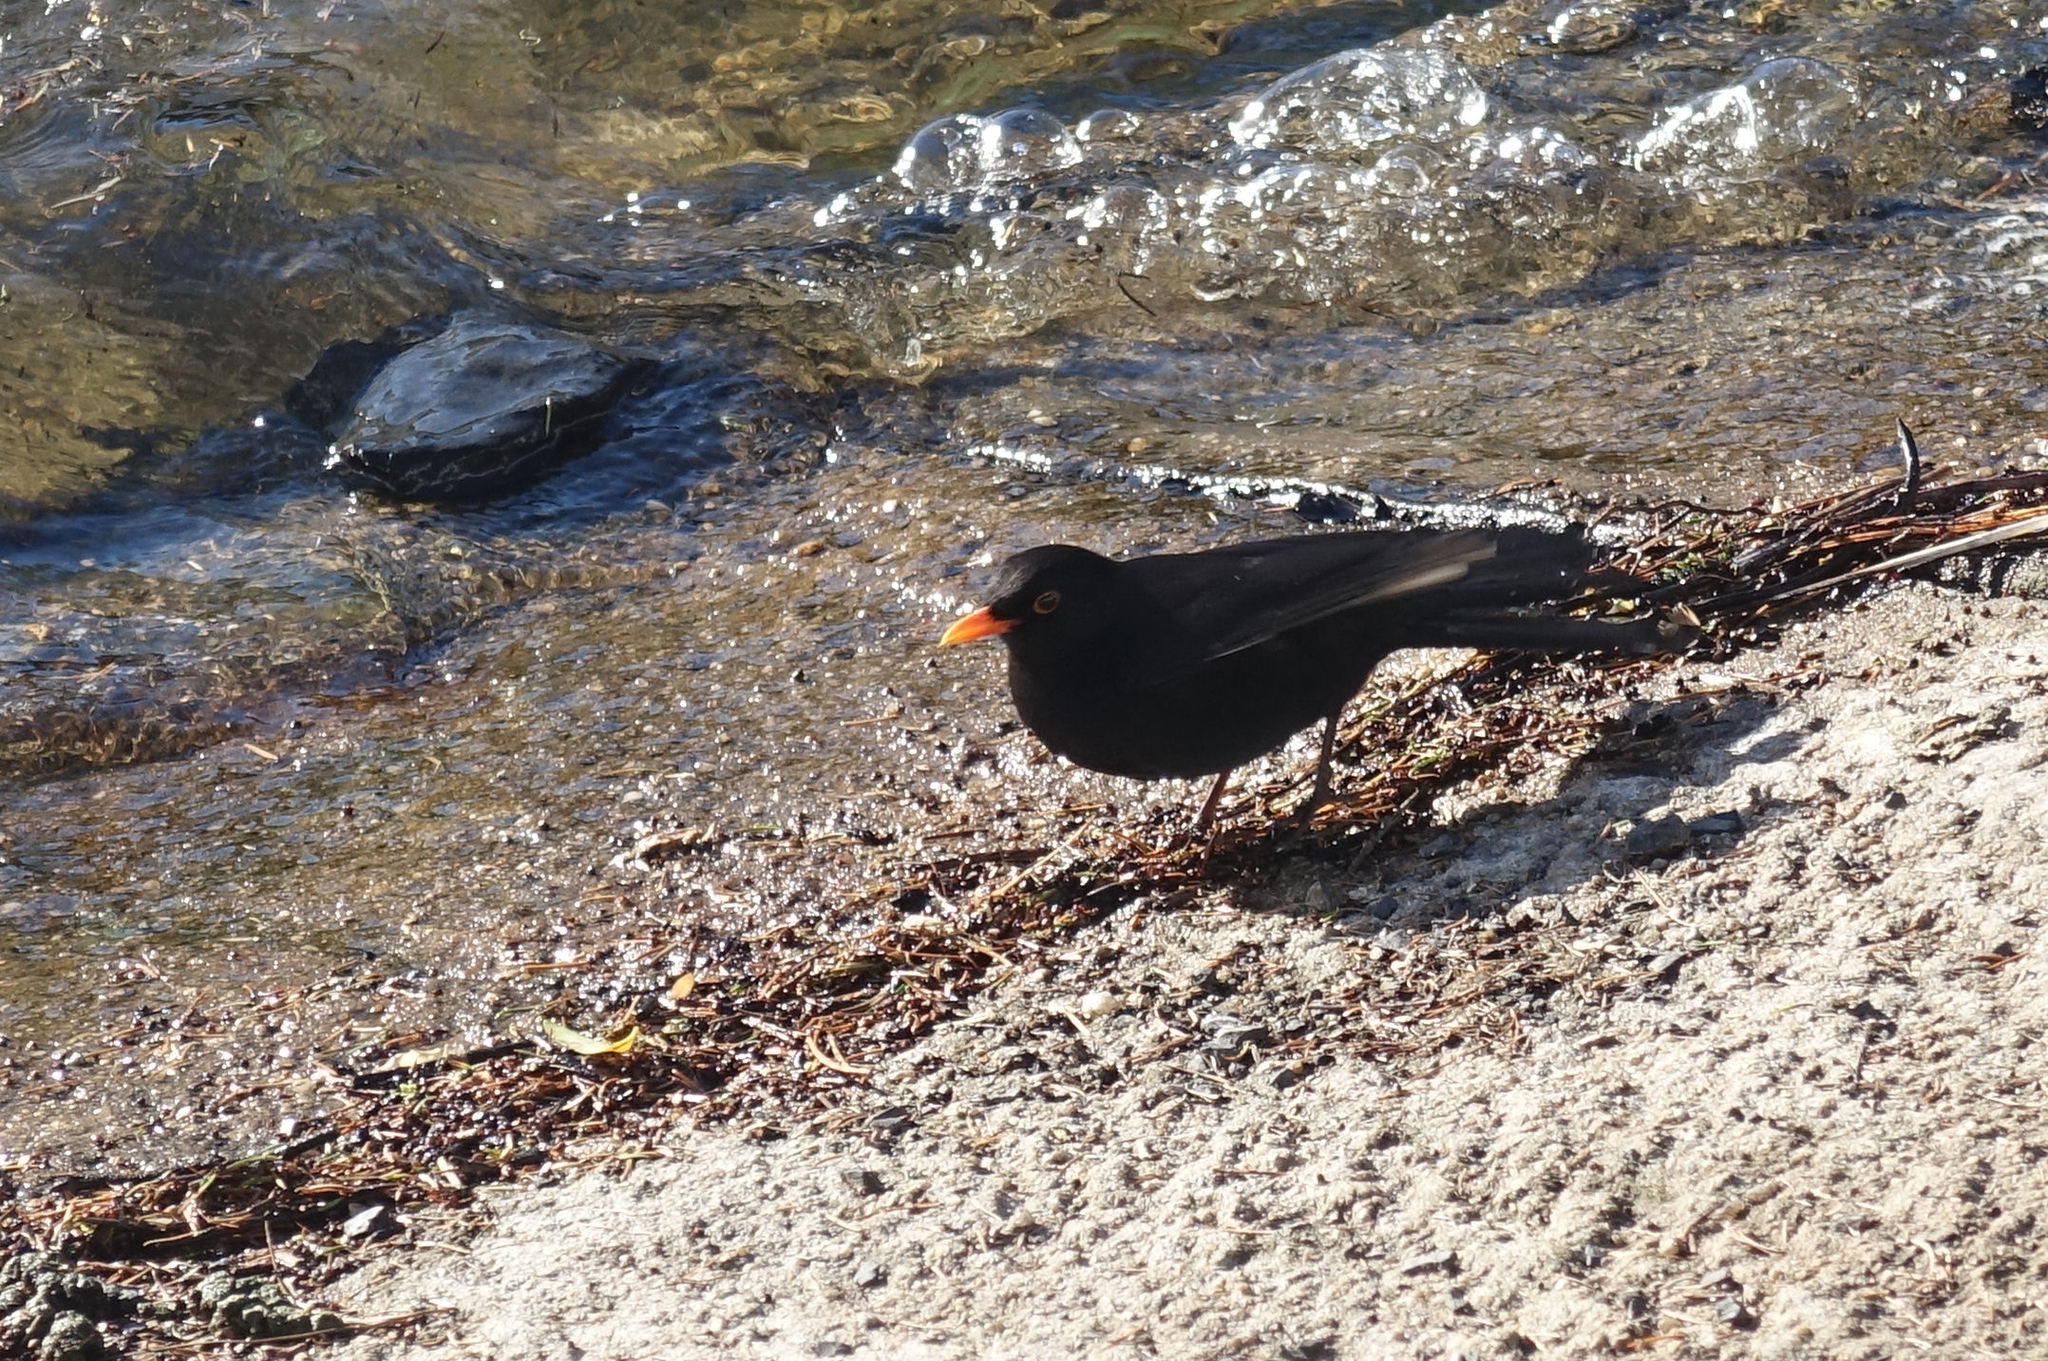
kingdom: Animalia
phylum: Chordata
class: Aves
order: Passeriformes
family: Turdidae
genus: Turdus
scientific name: Turdus merula
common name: Common blackbird
